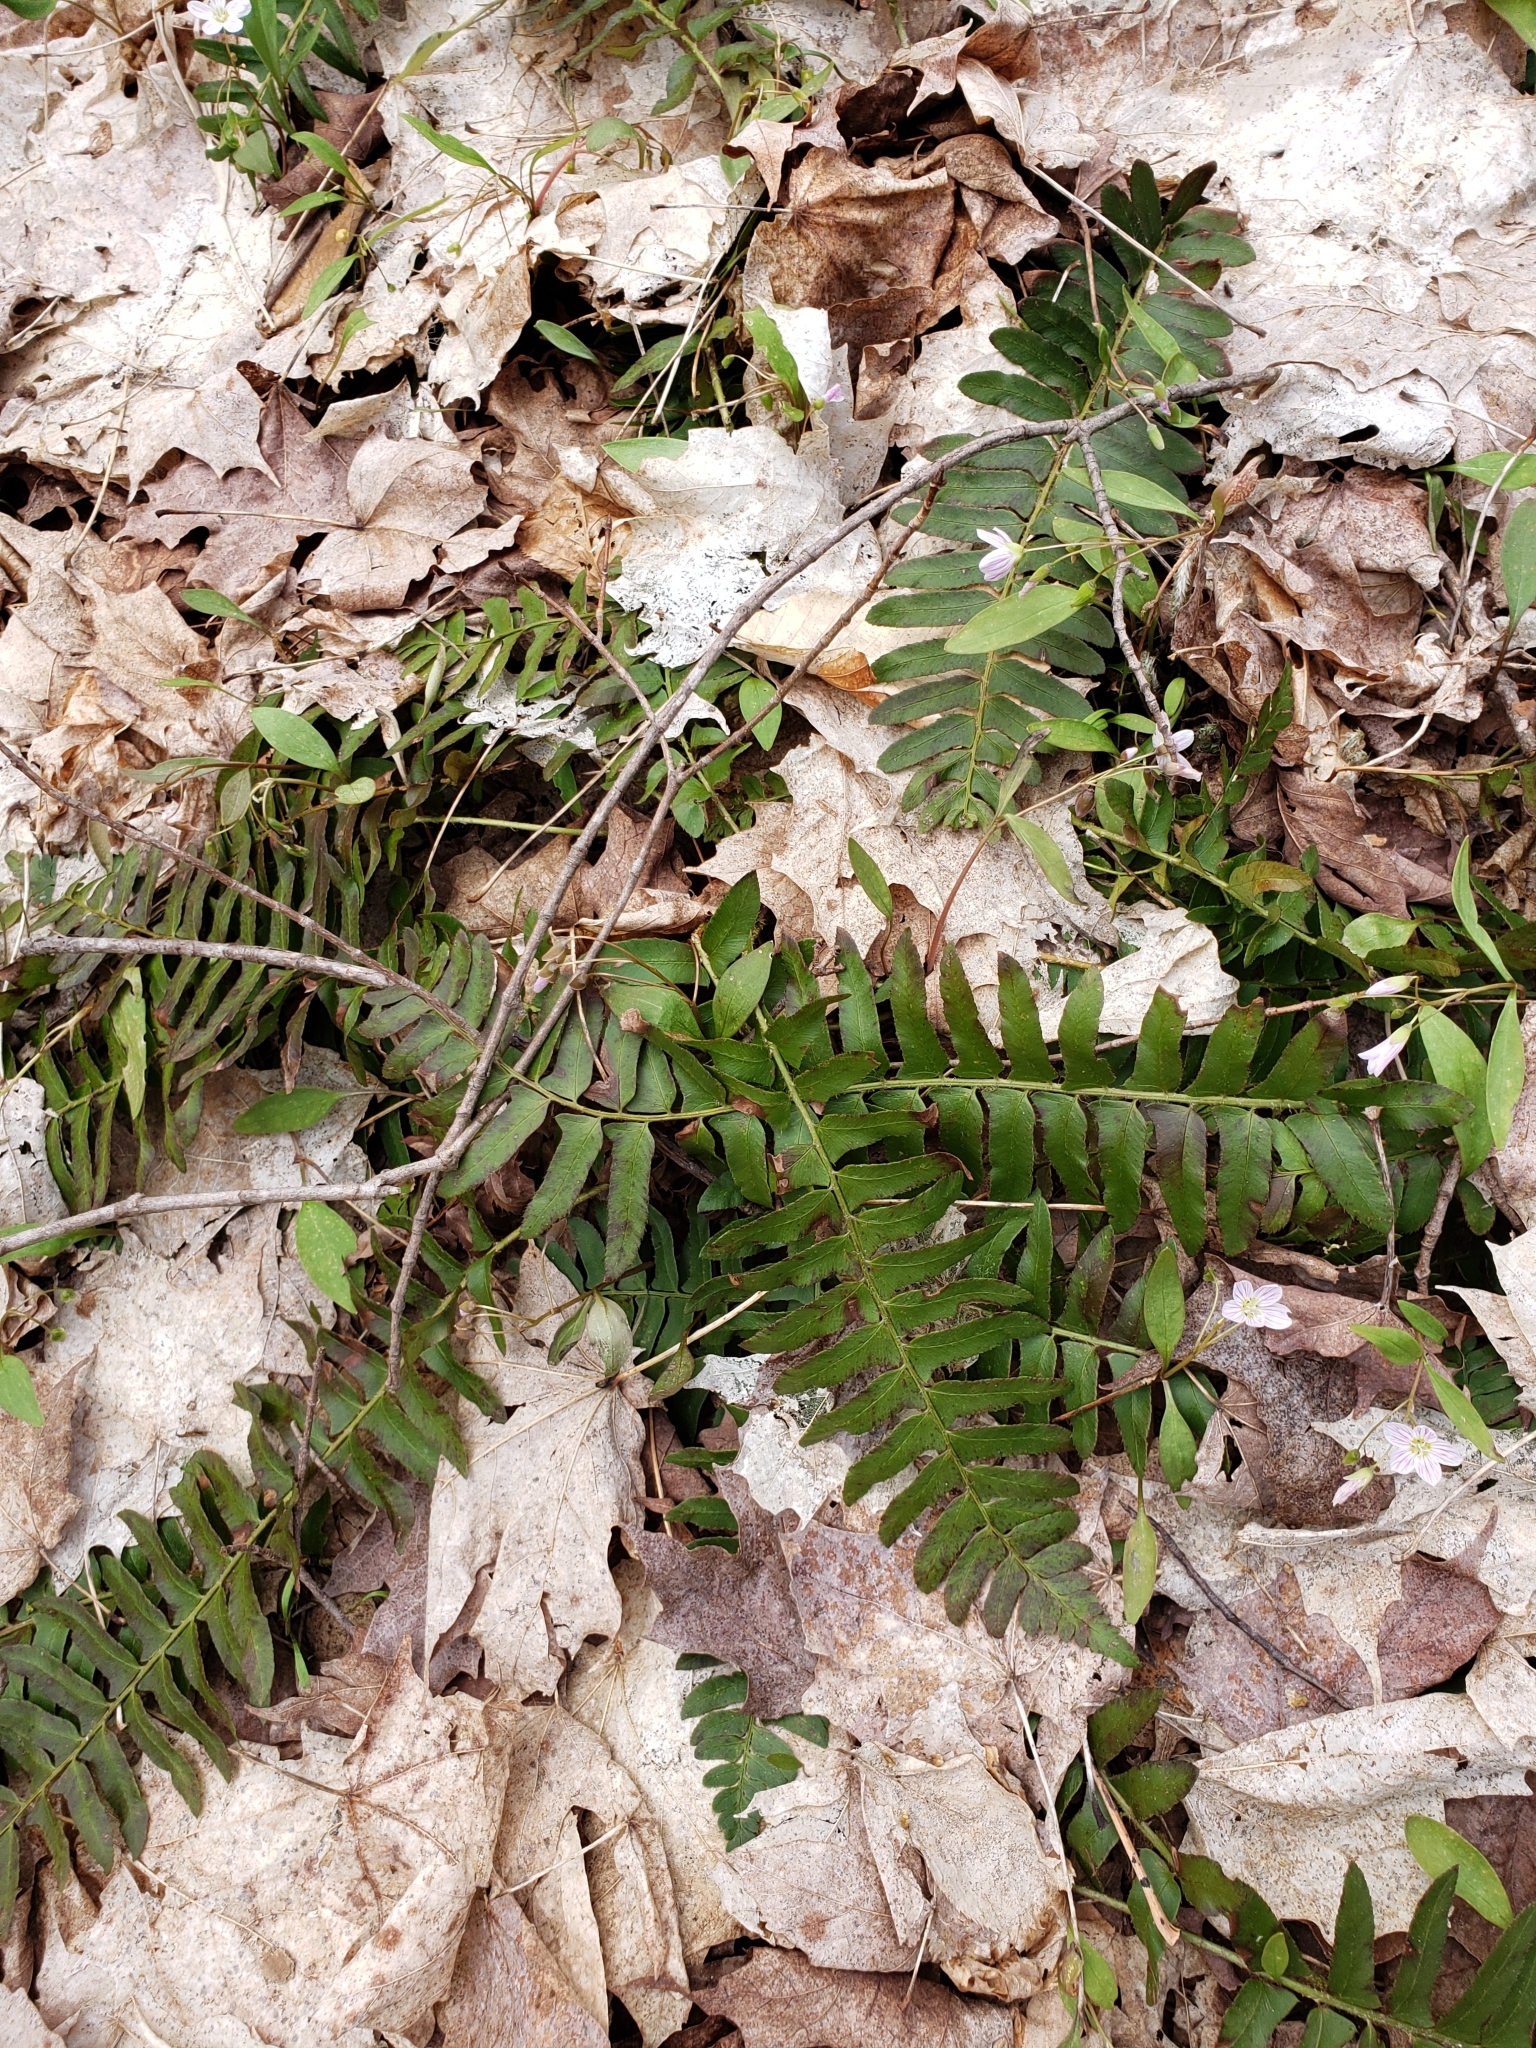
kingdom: Plantae
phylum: Tracheophyta
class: Polypodiopsida
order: Polypodiales
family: Dryopteridaceae
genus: Polystichum
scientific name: Polystichum acrostichoides
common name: Christmas fern
